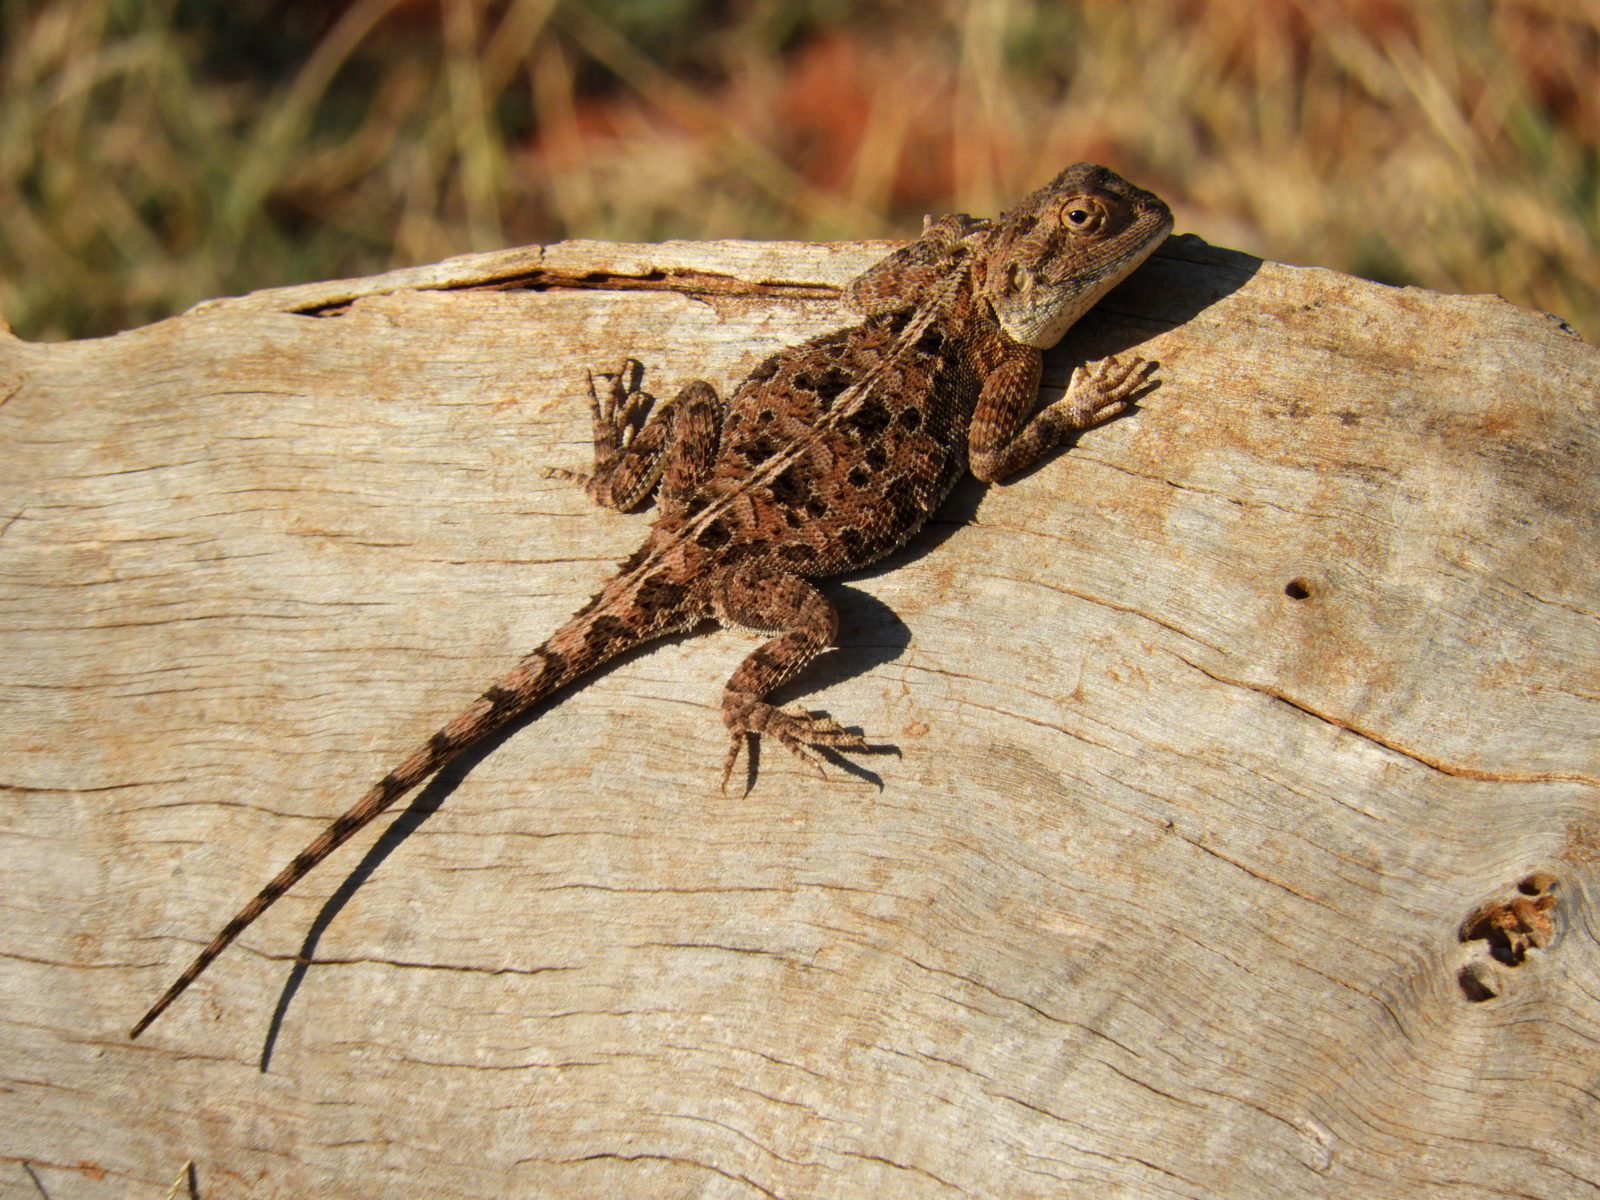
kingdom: Animalia
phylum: Chordata
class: Squamata
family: Agamidae
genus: Agama
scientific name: Agama aculeata
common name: Common ground agama
